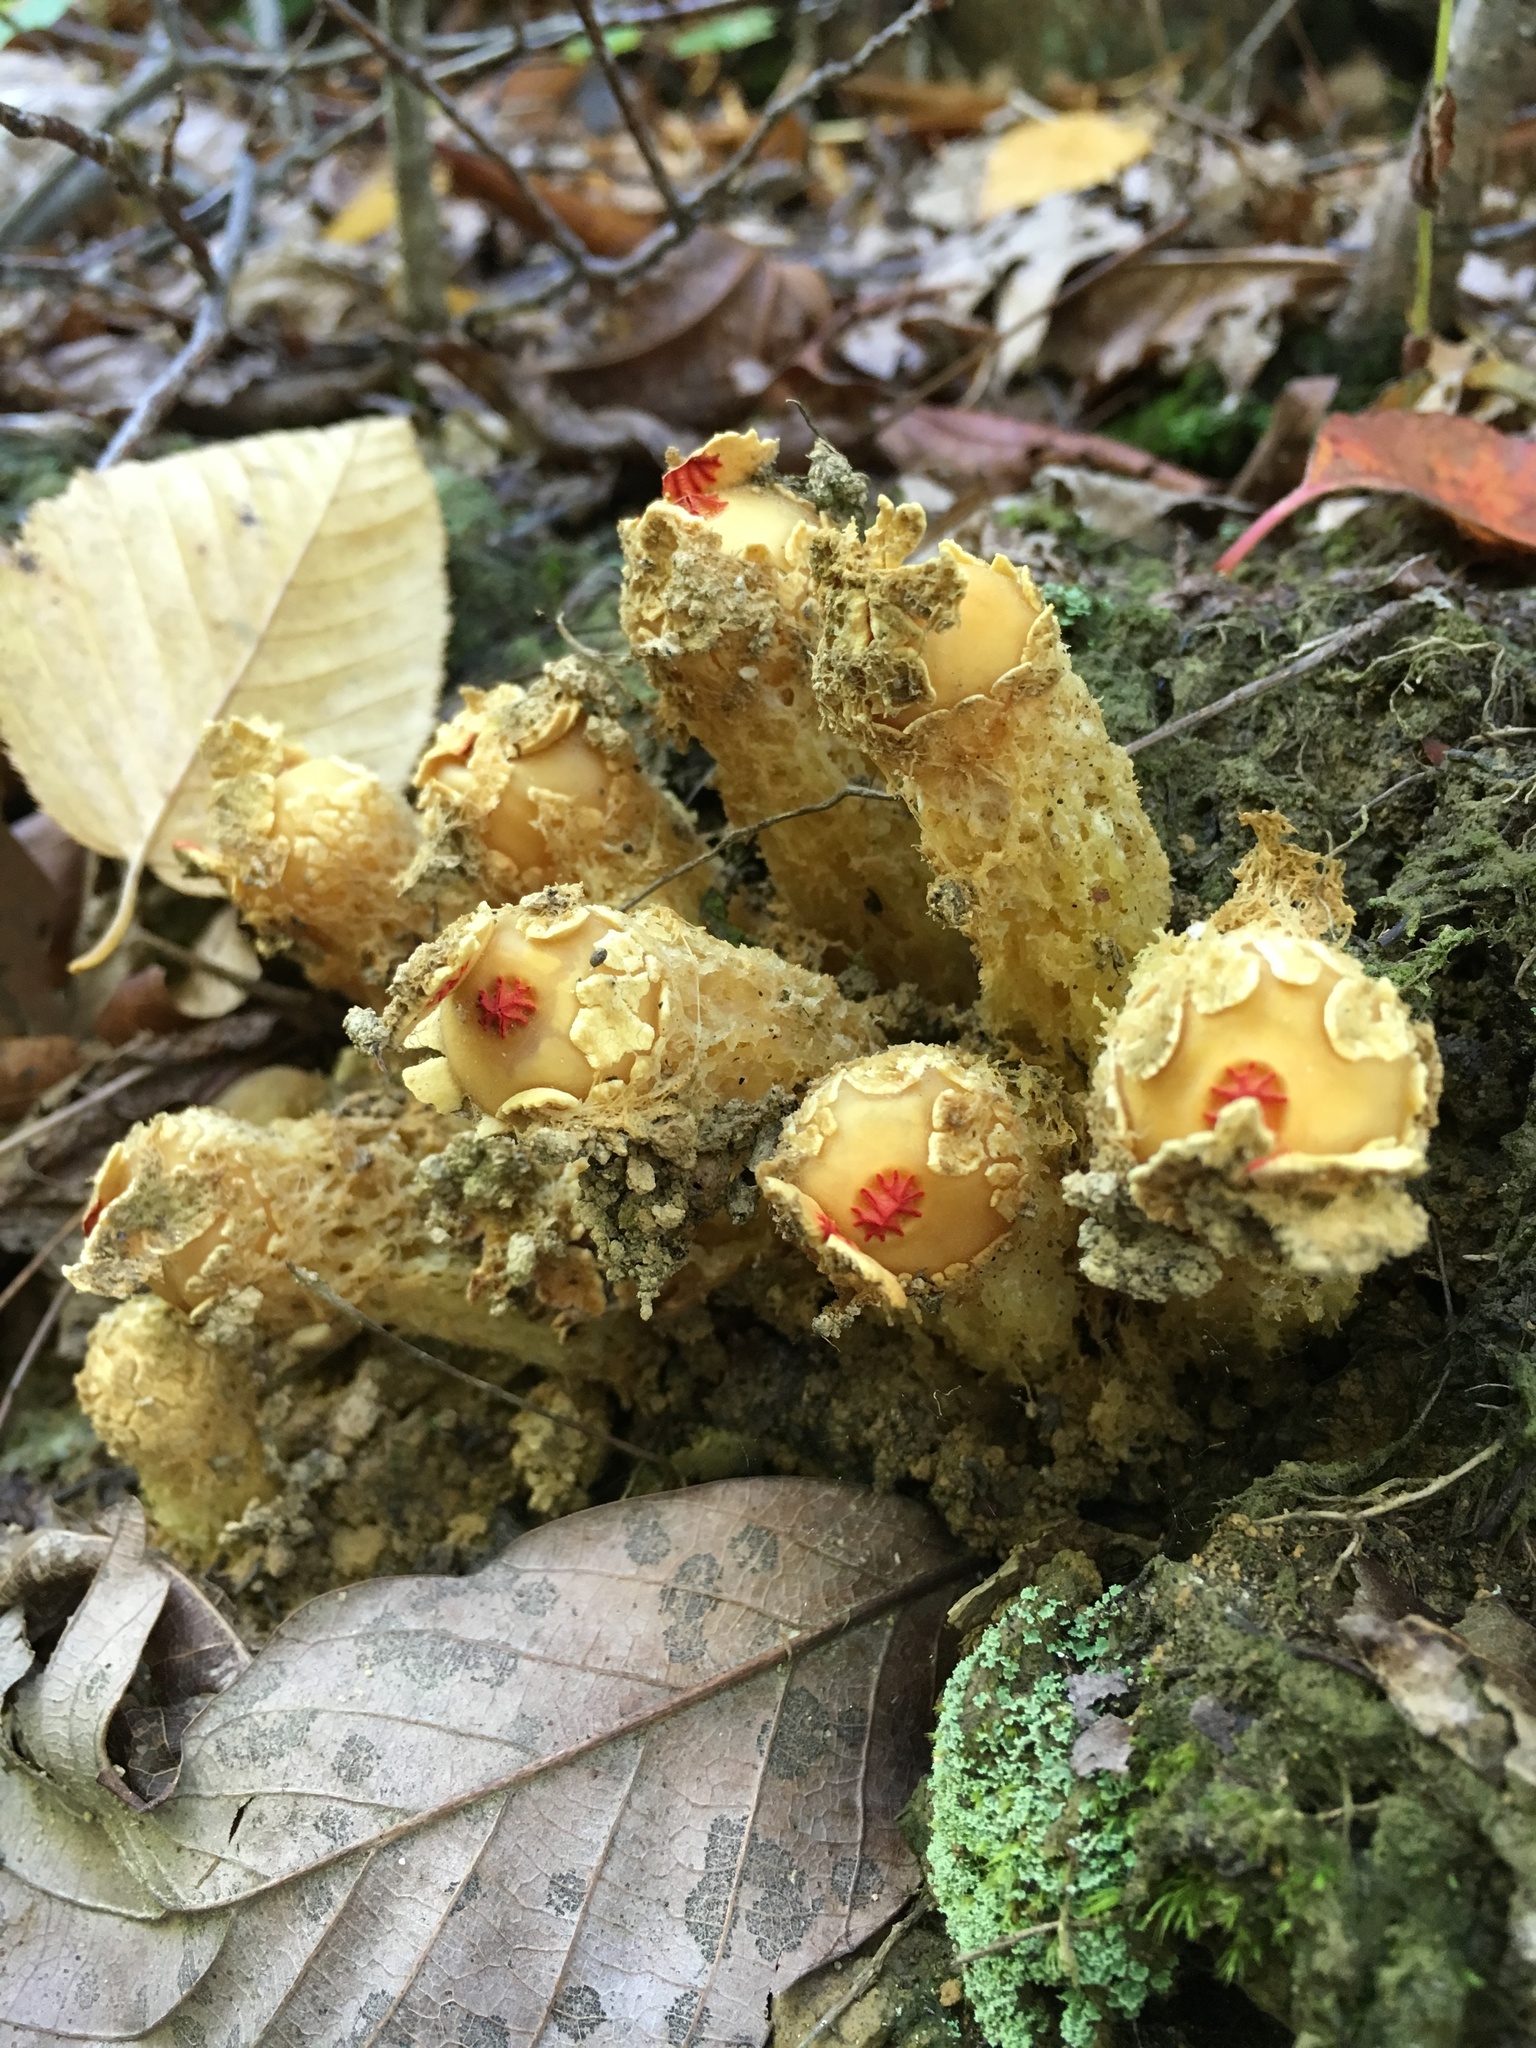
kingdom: Fungi
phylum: Basidiomycota
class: Agaricomycetes
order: Boletales
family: Calostomataceae
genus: Calostoma
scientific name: Calostoma lutescens
